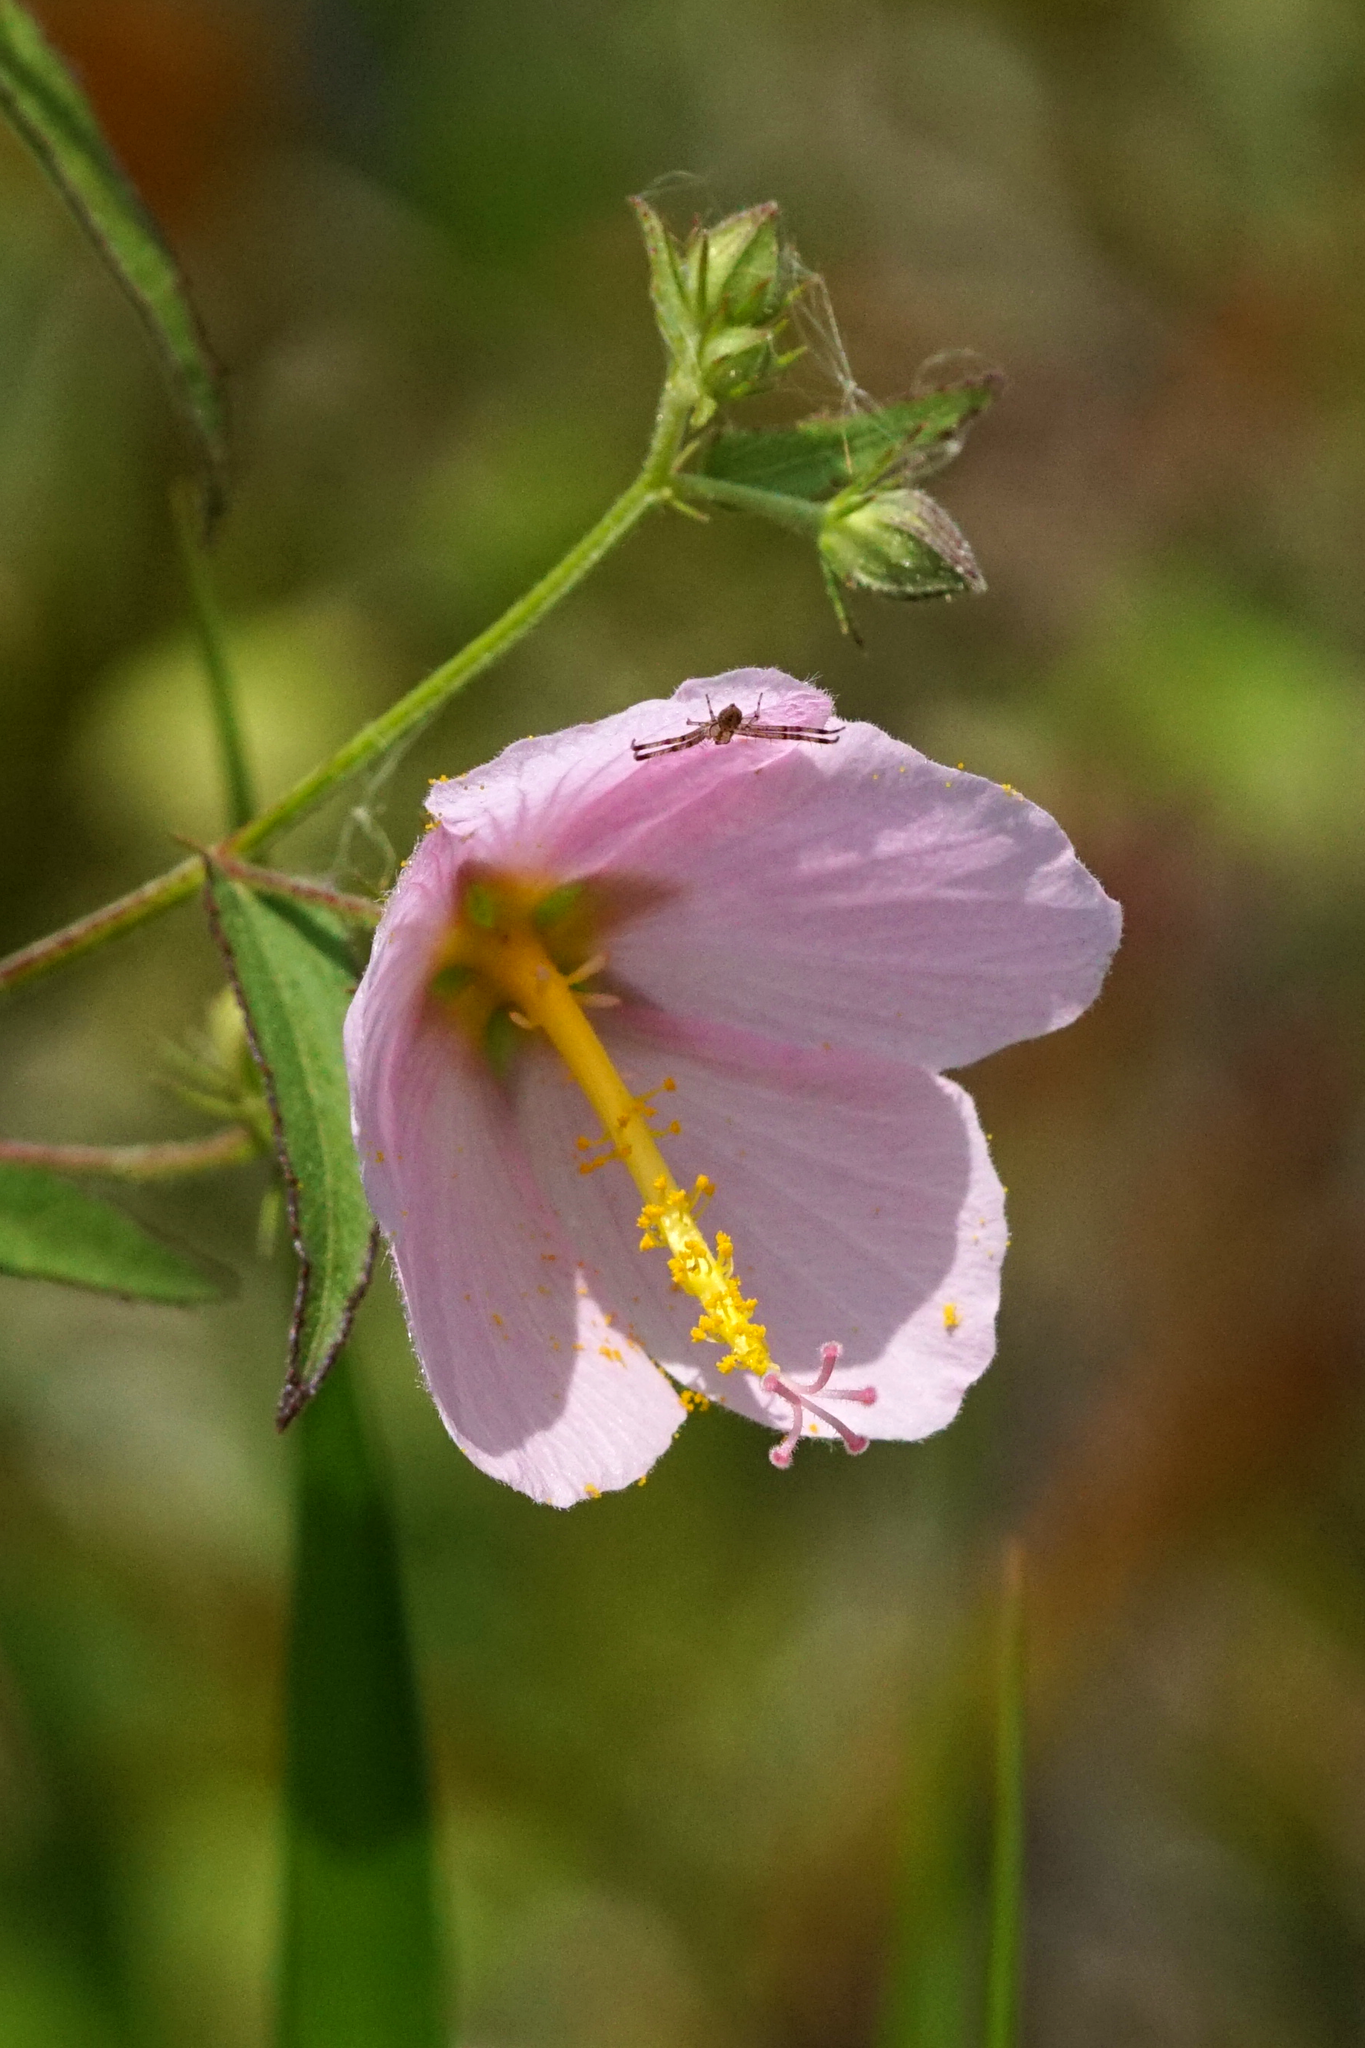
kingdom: Plantae
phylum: Tracheophyta
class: Magnoliopsida
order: Malvales
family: Malvaceae
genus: Kosteletzkya
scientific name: Kosteletzkya pentacarpos
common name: Virginia saltmarsh mallow
